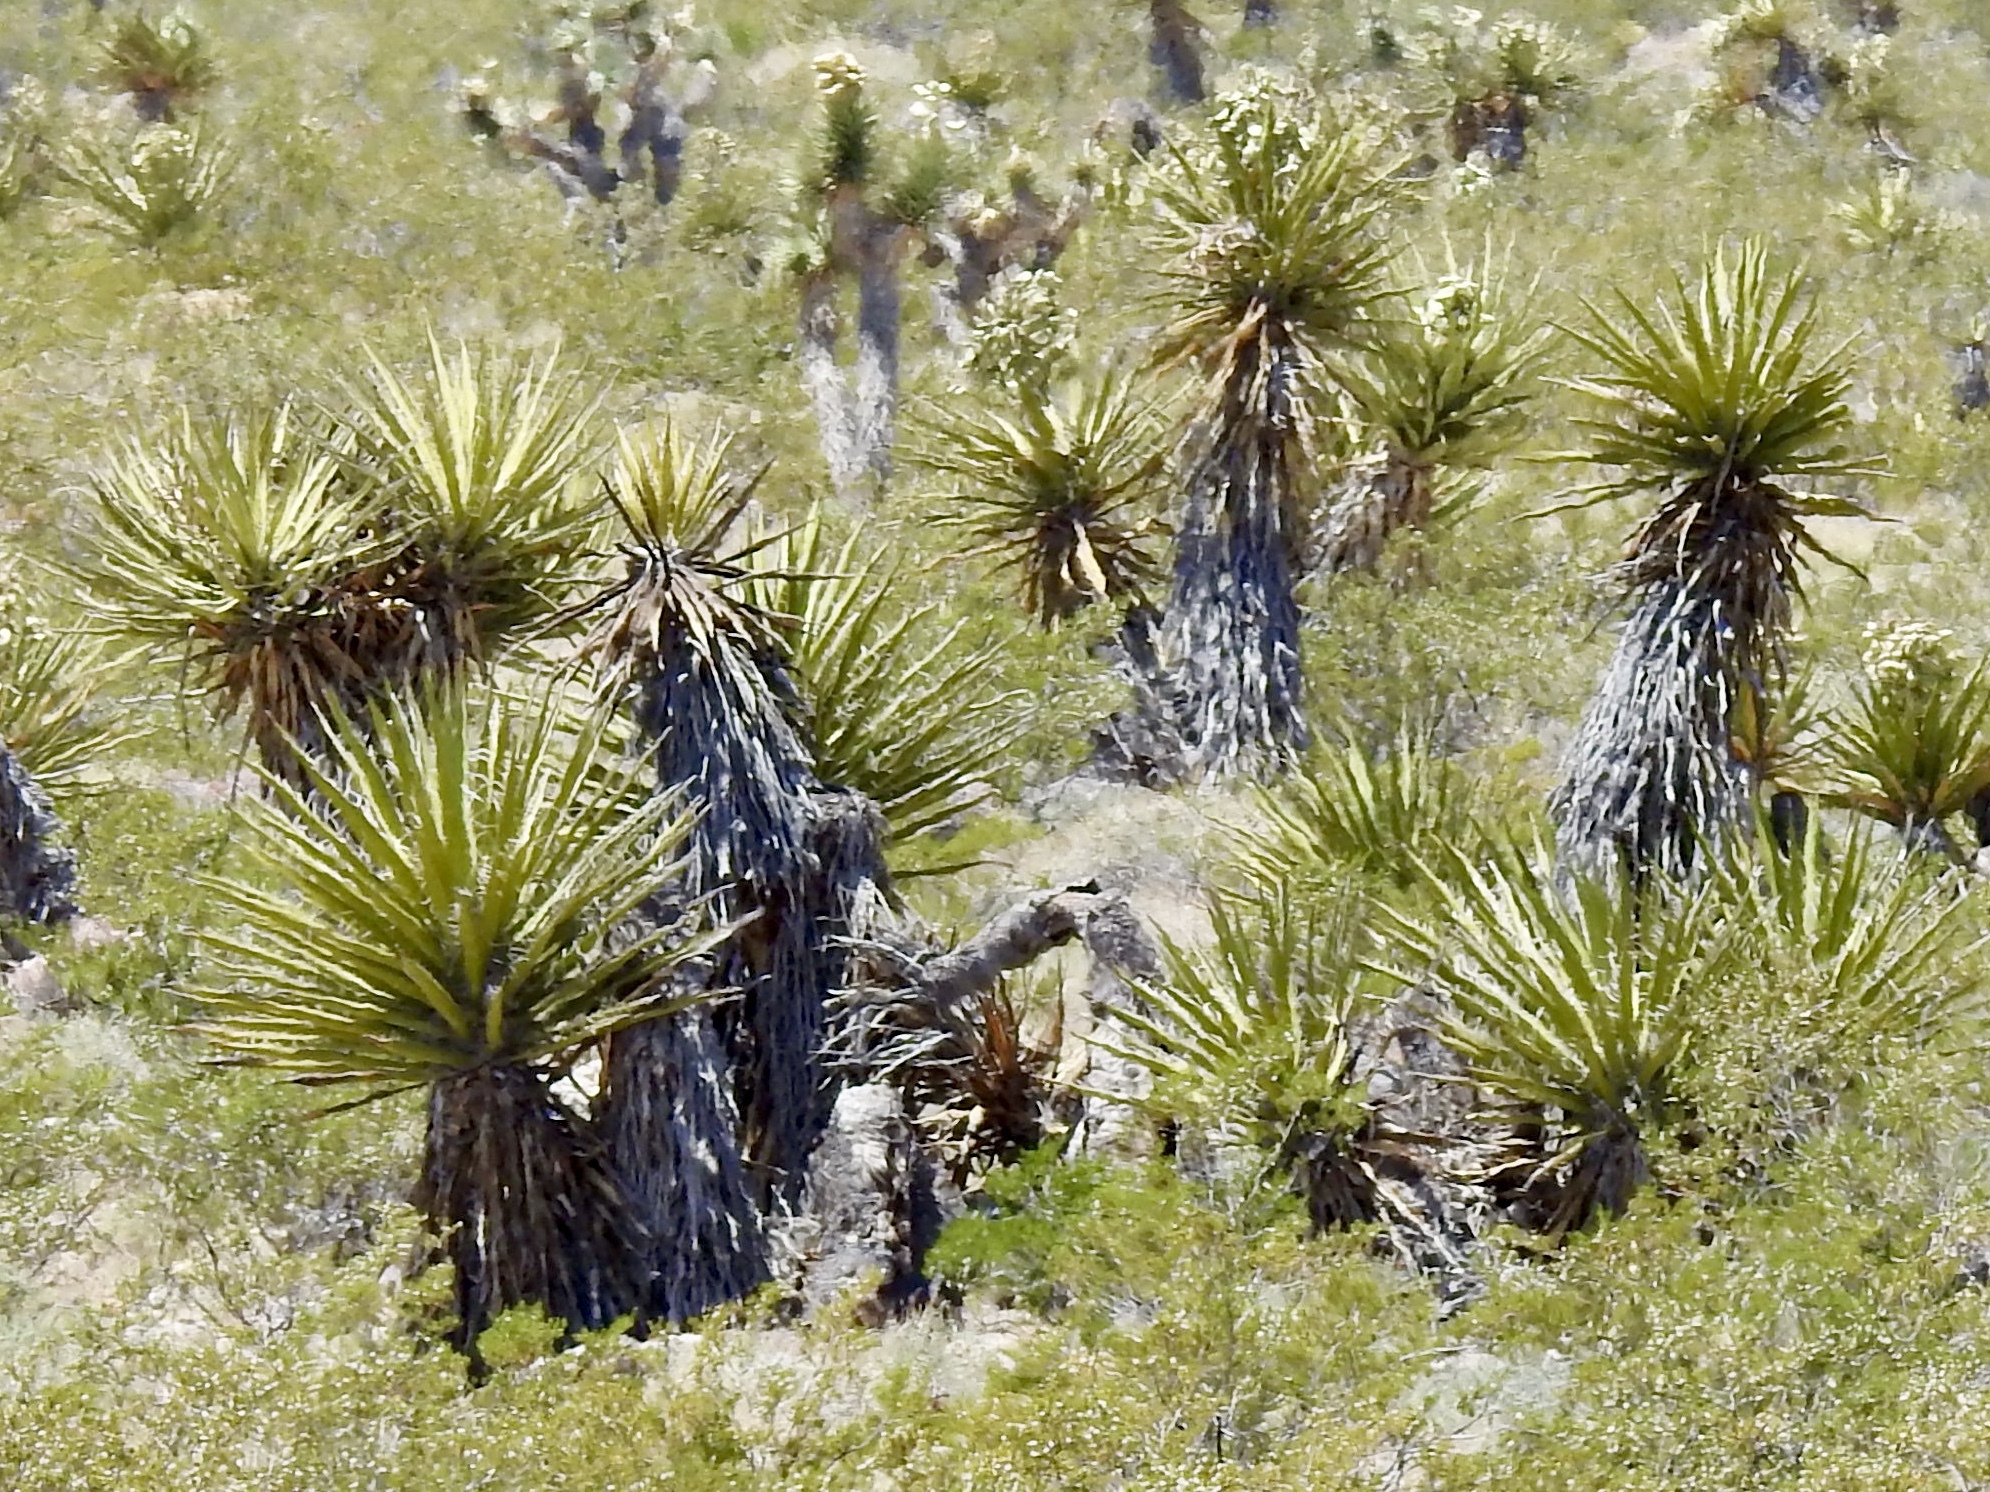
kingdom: Plantae
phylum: Tracheophyta
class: Liliopsida
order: Asparagales
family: Asparagaceae
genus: Yucca
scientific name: Yucca schidigera
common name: Mojave yucca
